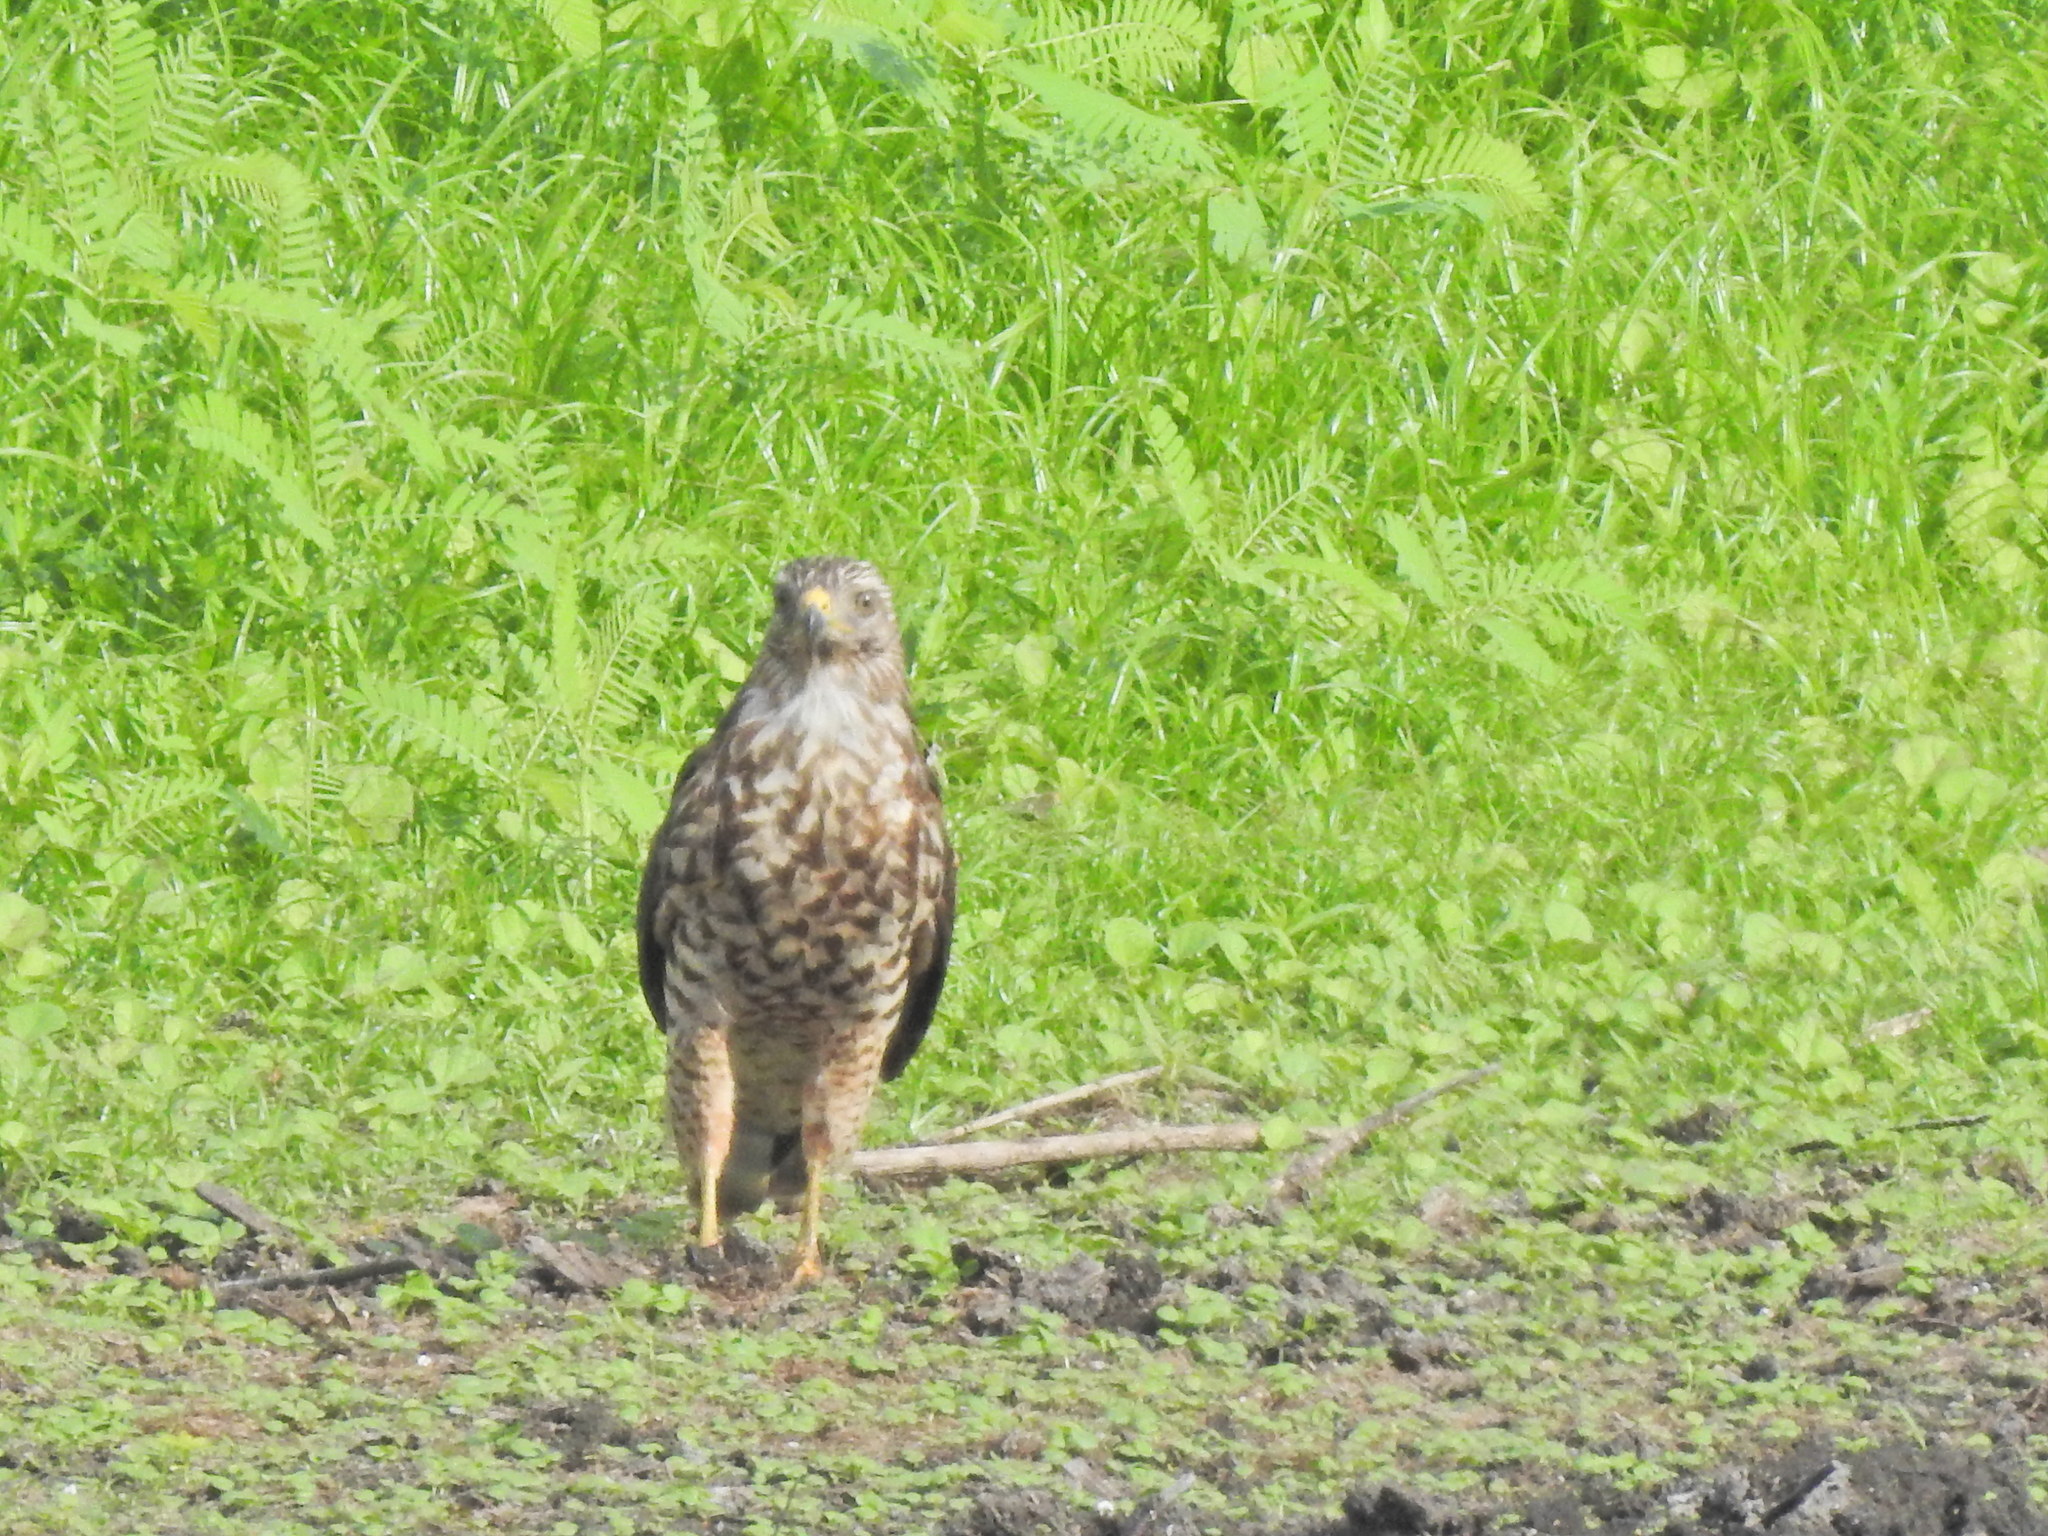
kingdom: Animalia
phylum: Chordata
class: Aves
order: Accipitriformes
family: Accipitridae
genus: Buteo
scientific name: Buteo lineatus
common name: Red-shouldered hawk
